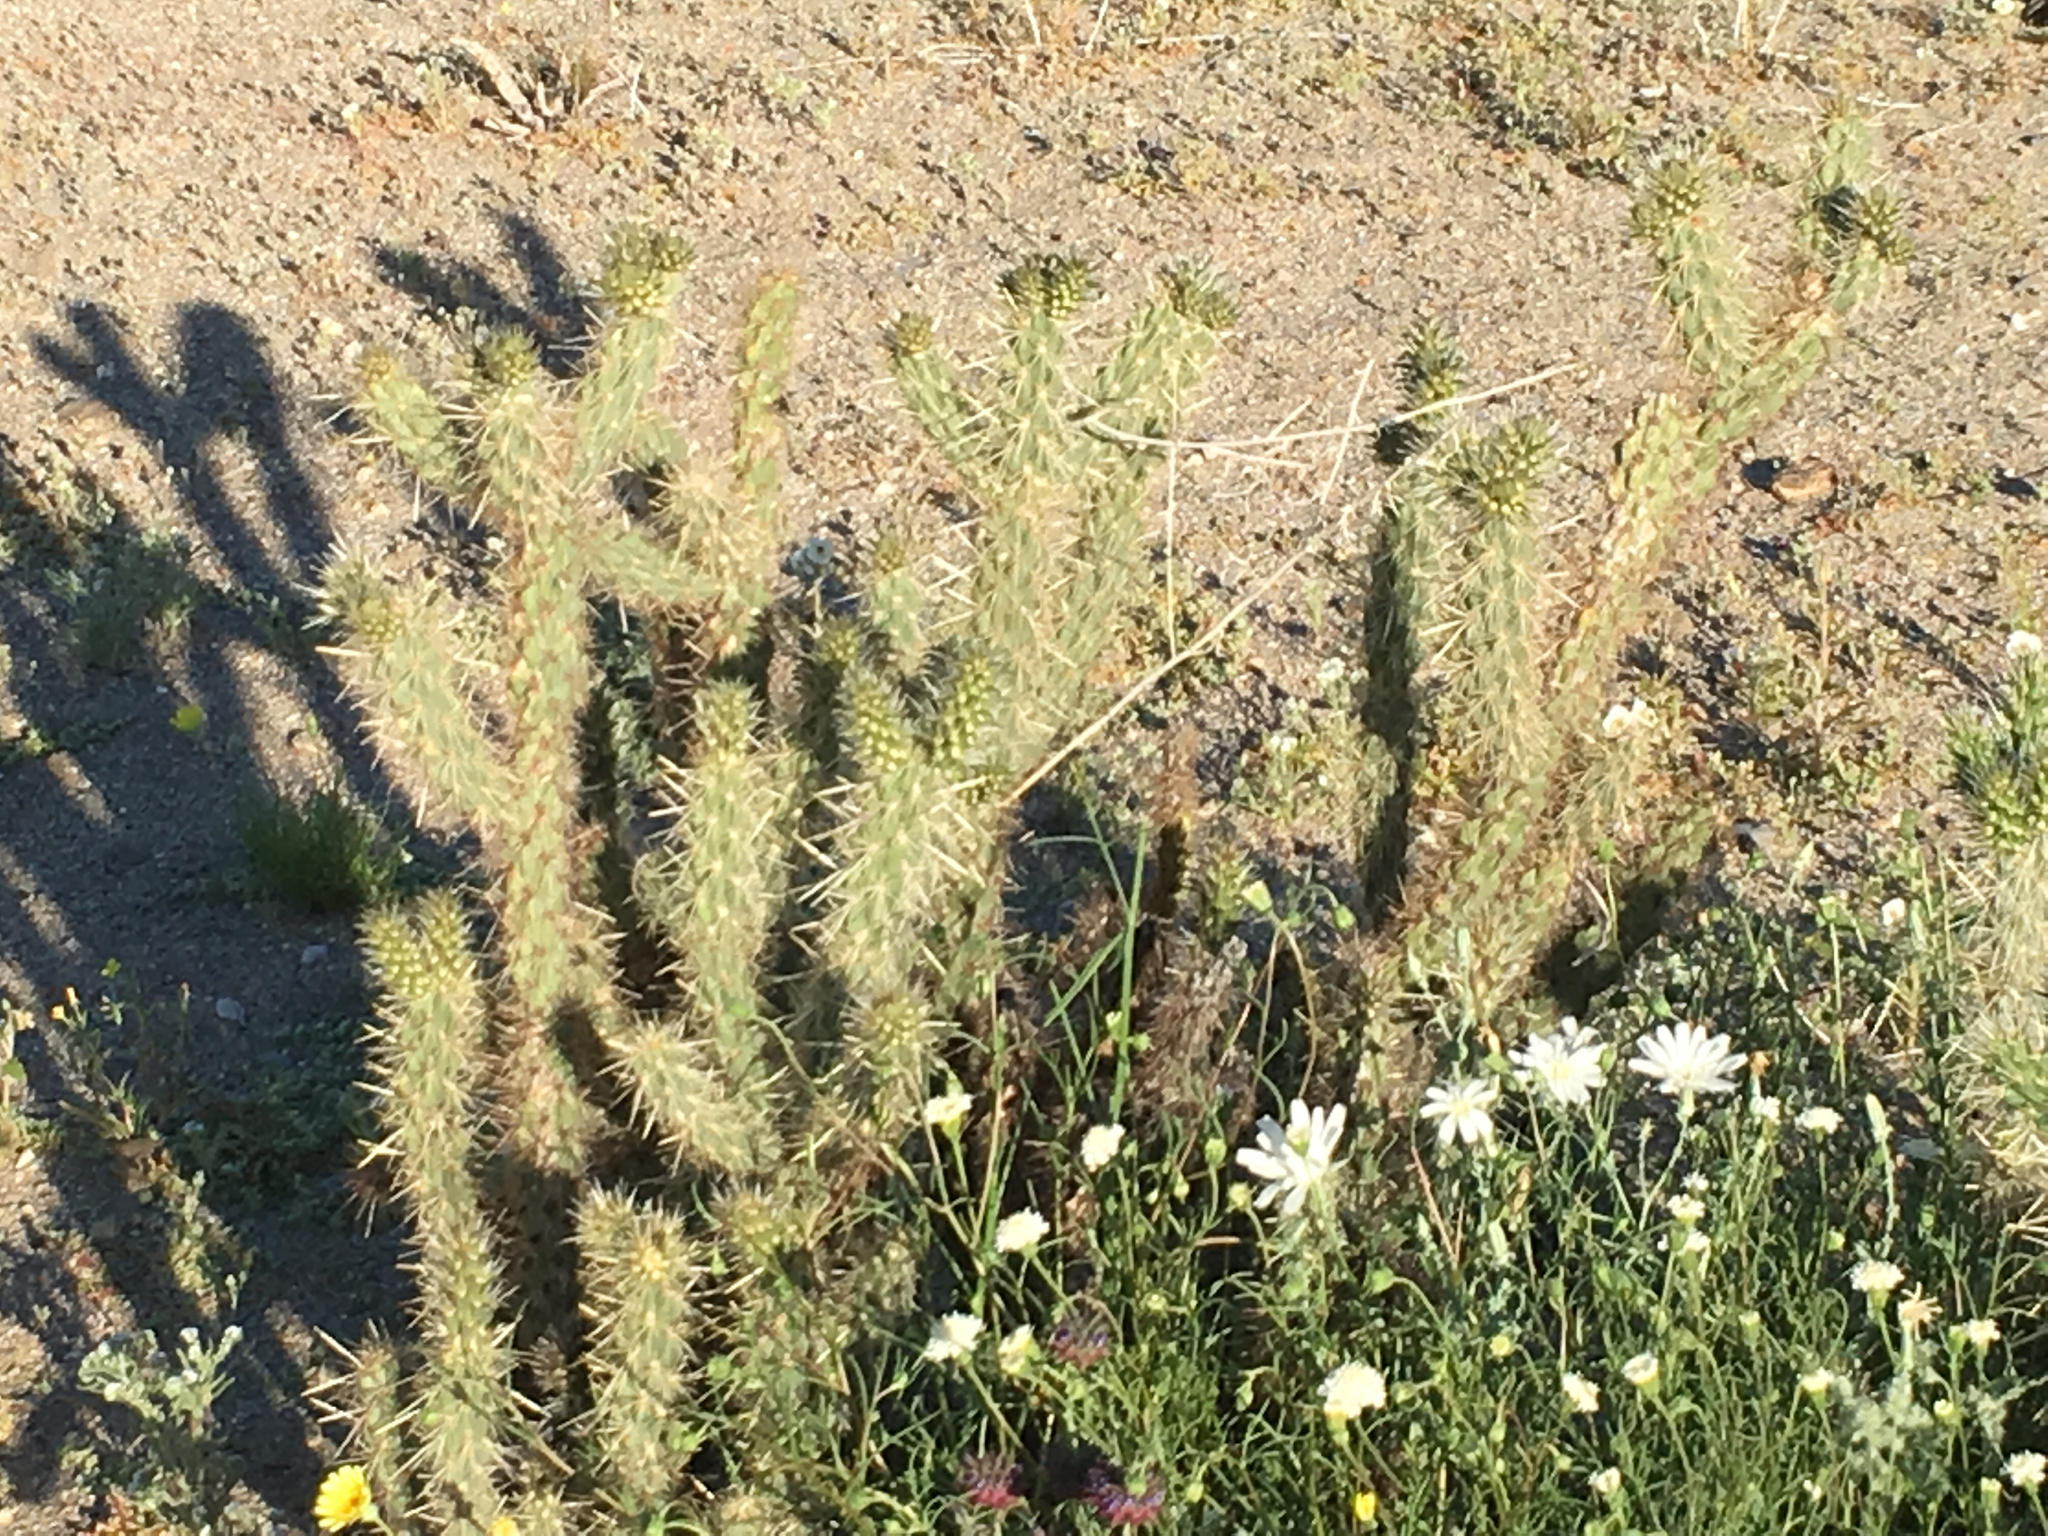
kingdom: Plantae
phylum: Tracheophyta
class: Magnoliopsida
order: Caryophyllales
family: Cactaceae
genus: Cylindropuntia
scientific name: Cylindropuntia ganderi
